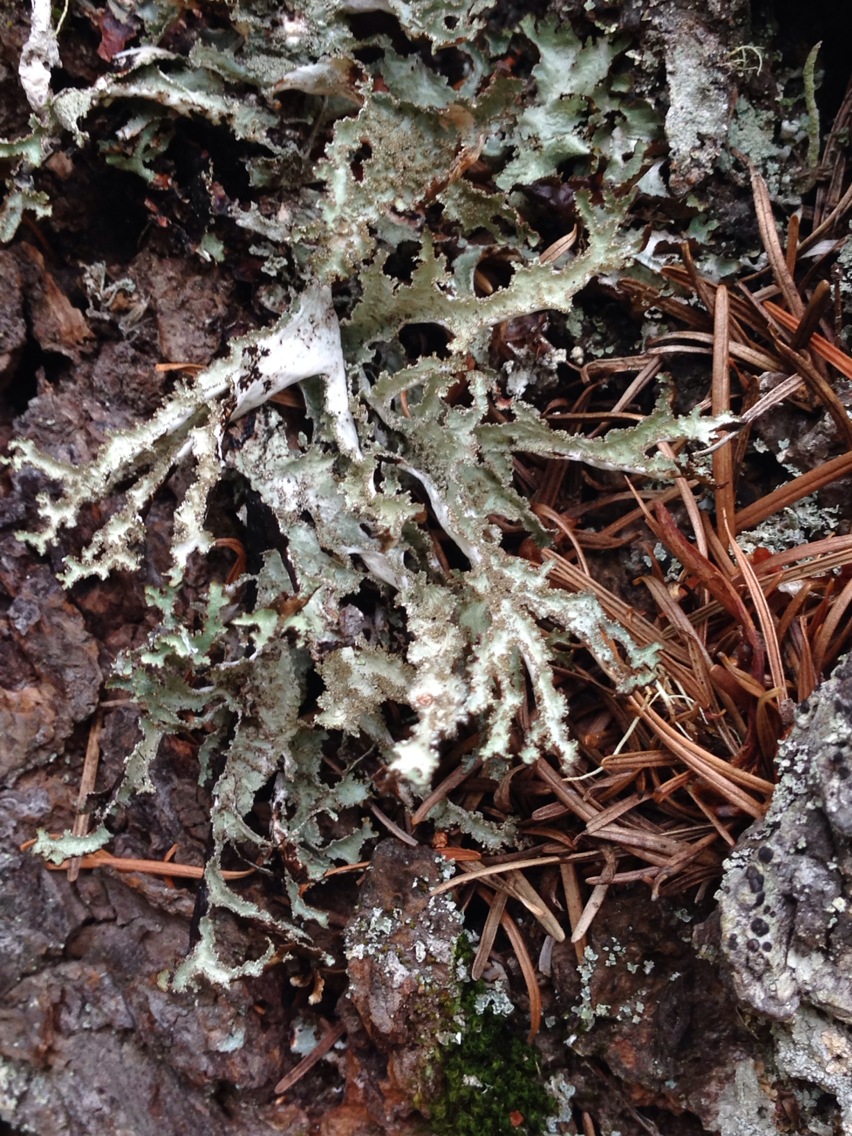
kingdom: Fungi
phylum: Ascomycota
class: Lecanoromycetes
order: Lecanorales
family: Parmeliaceae
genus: Platismatia
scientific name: Platismatia herrei
